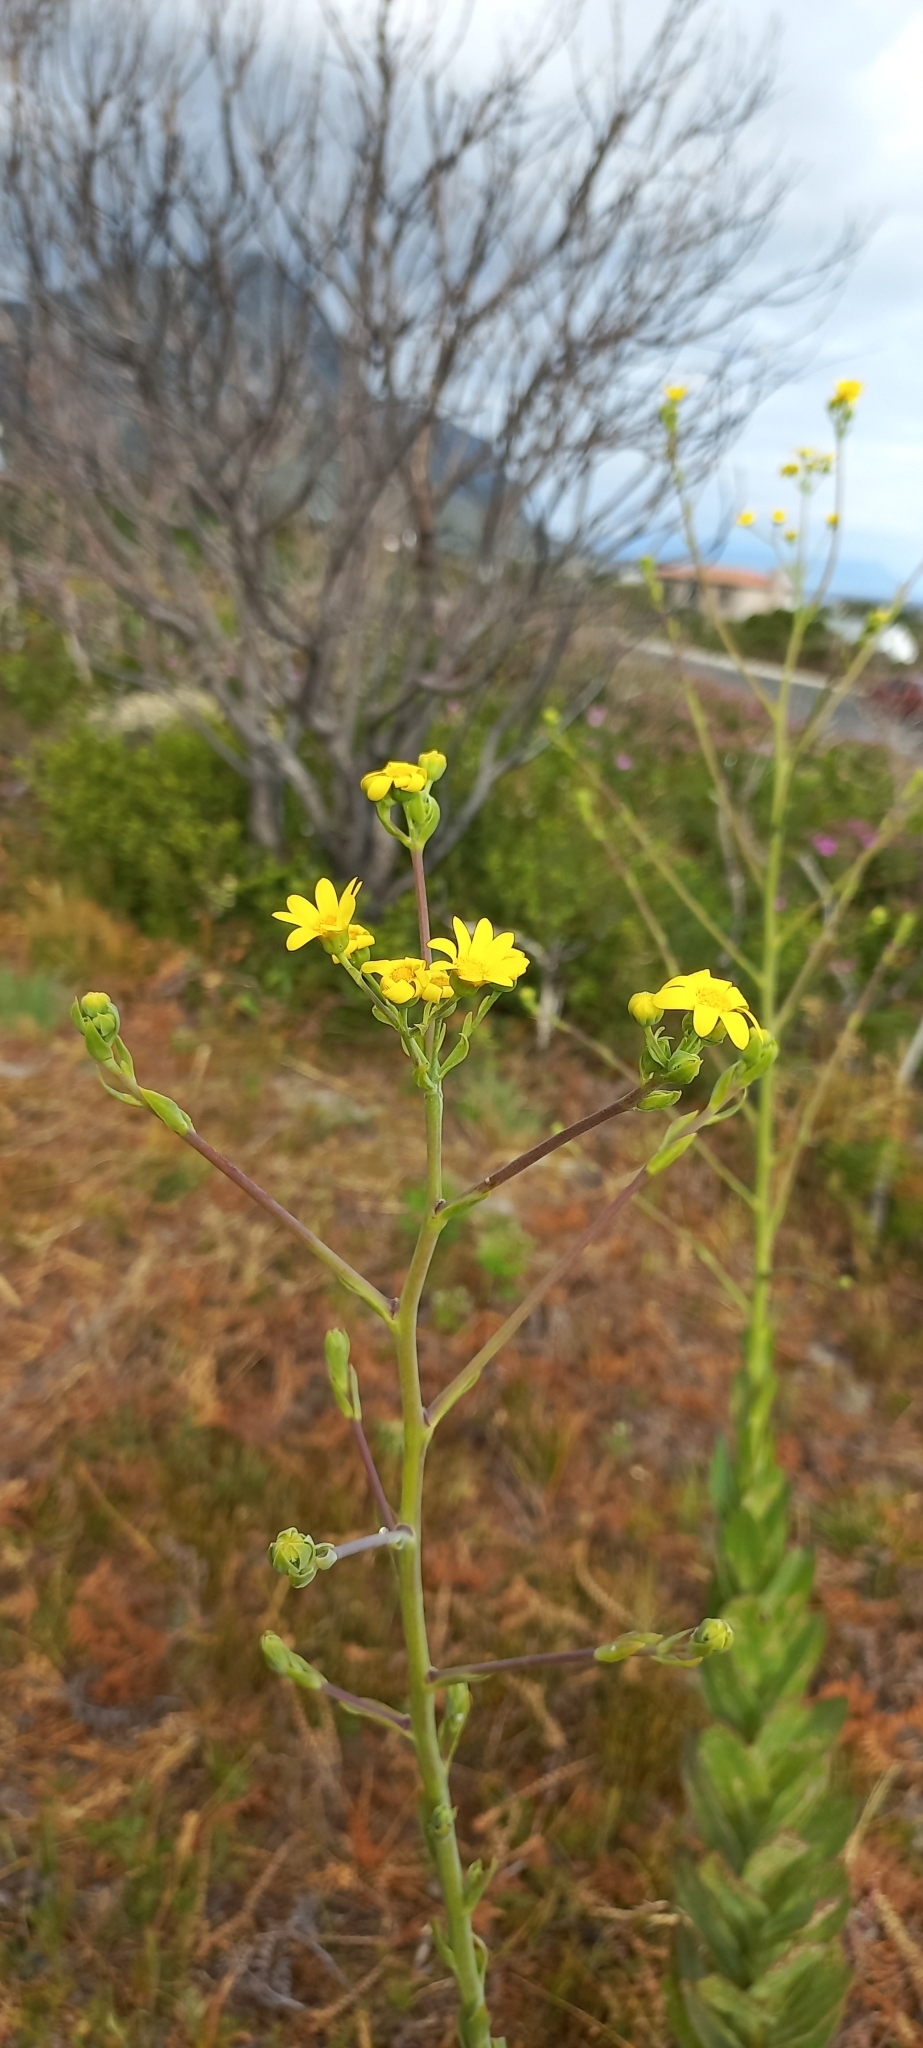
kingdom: Plantae
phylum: Tracheophyta
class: Magnoliopsida
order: Asterales
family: Asteraceae
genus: Othonna
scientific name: Othonna quinquedentata
